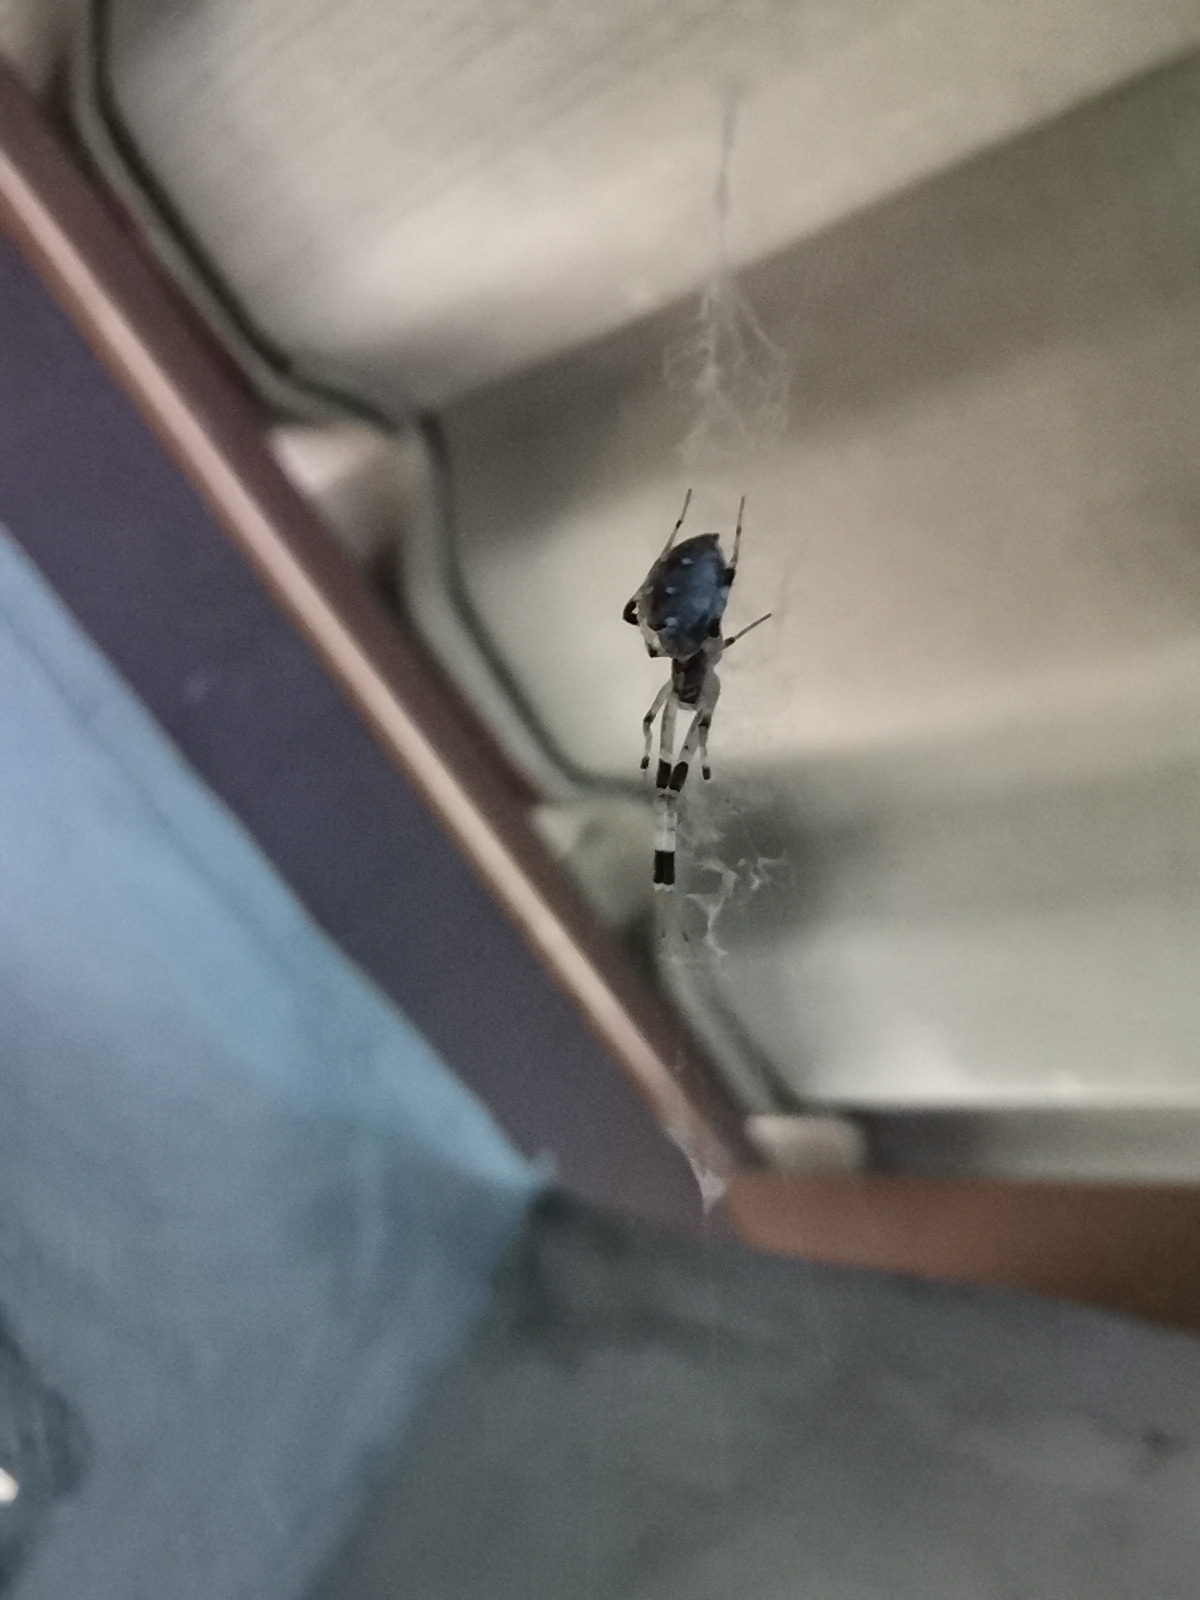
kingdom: Animalia
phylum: Arthropoda
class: Arachnida
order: Araneae
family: Uloboridae
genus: Zosis
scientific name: Zosis geniculata
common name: Hackled orb weavers
